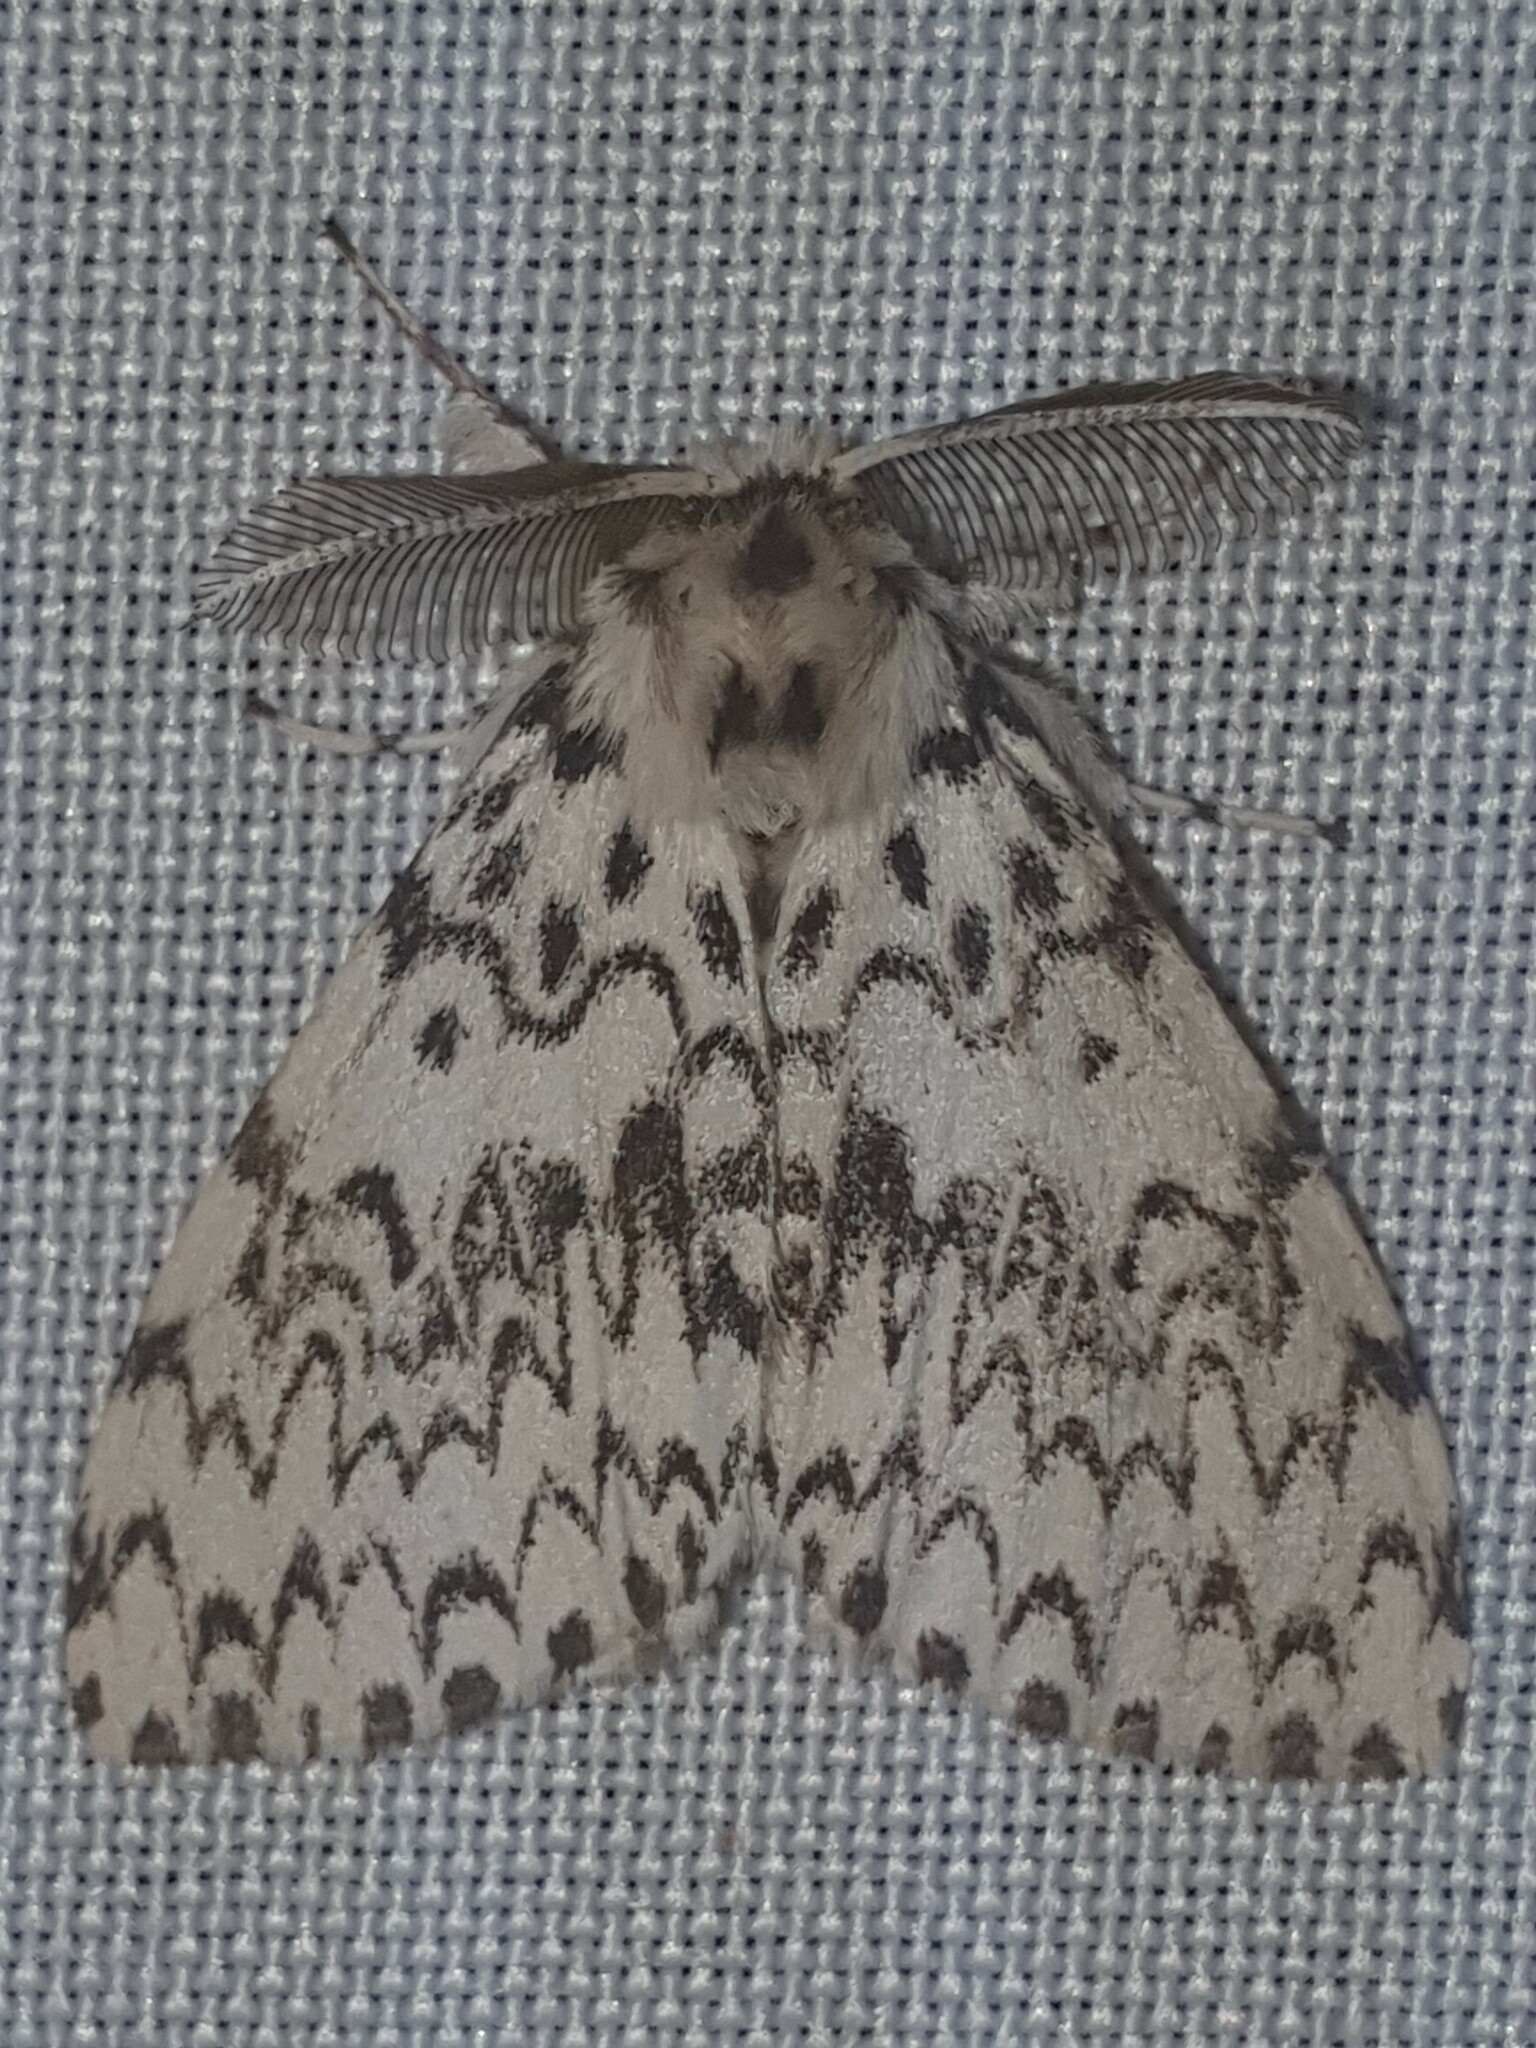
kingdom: Animalia
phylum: Arthropoda
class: Insecta
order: Lepidoptera
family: Erebidae
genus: Lymantria
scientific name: Lymantria monacha
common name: Black arches
